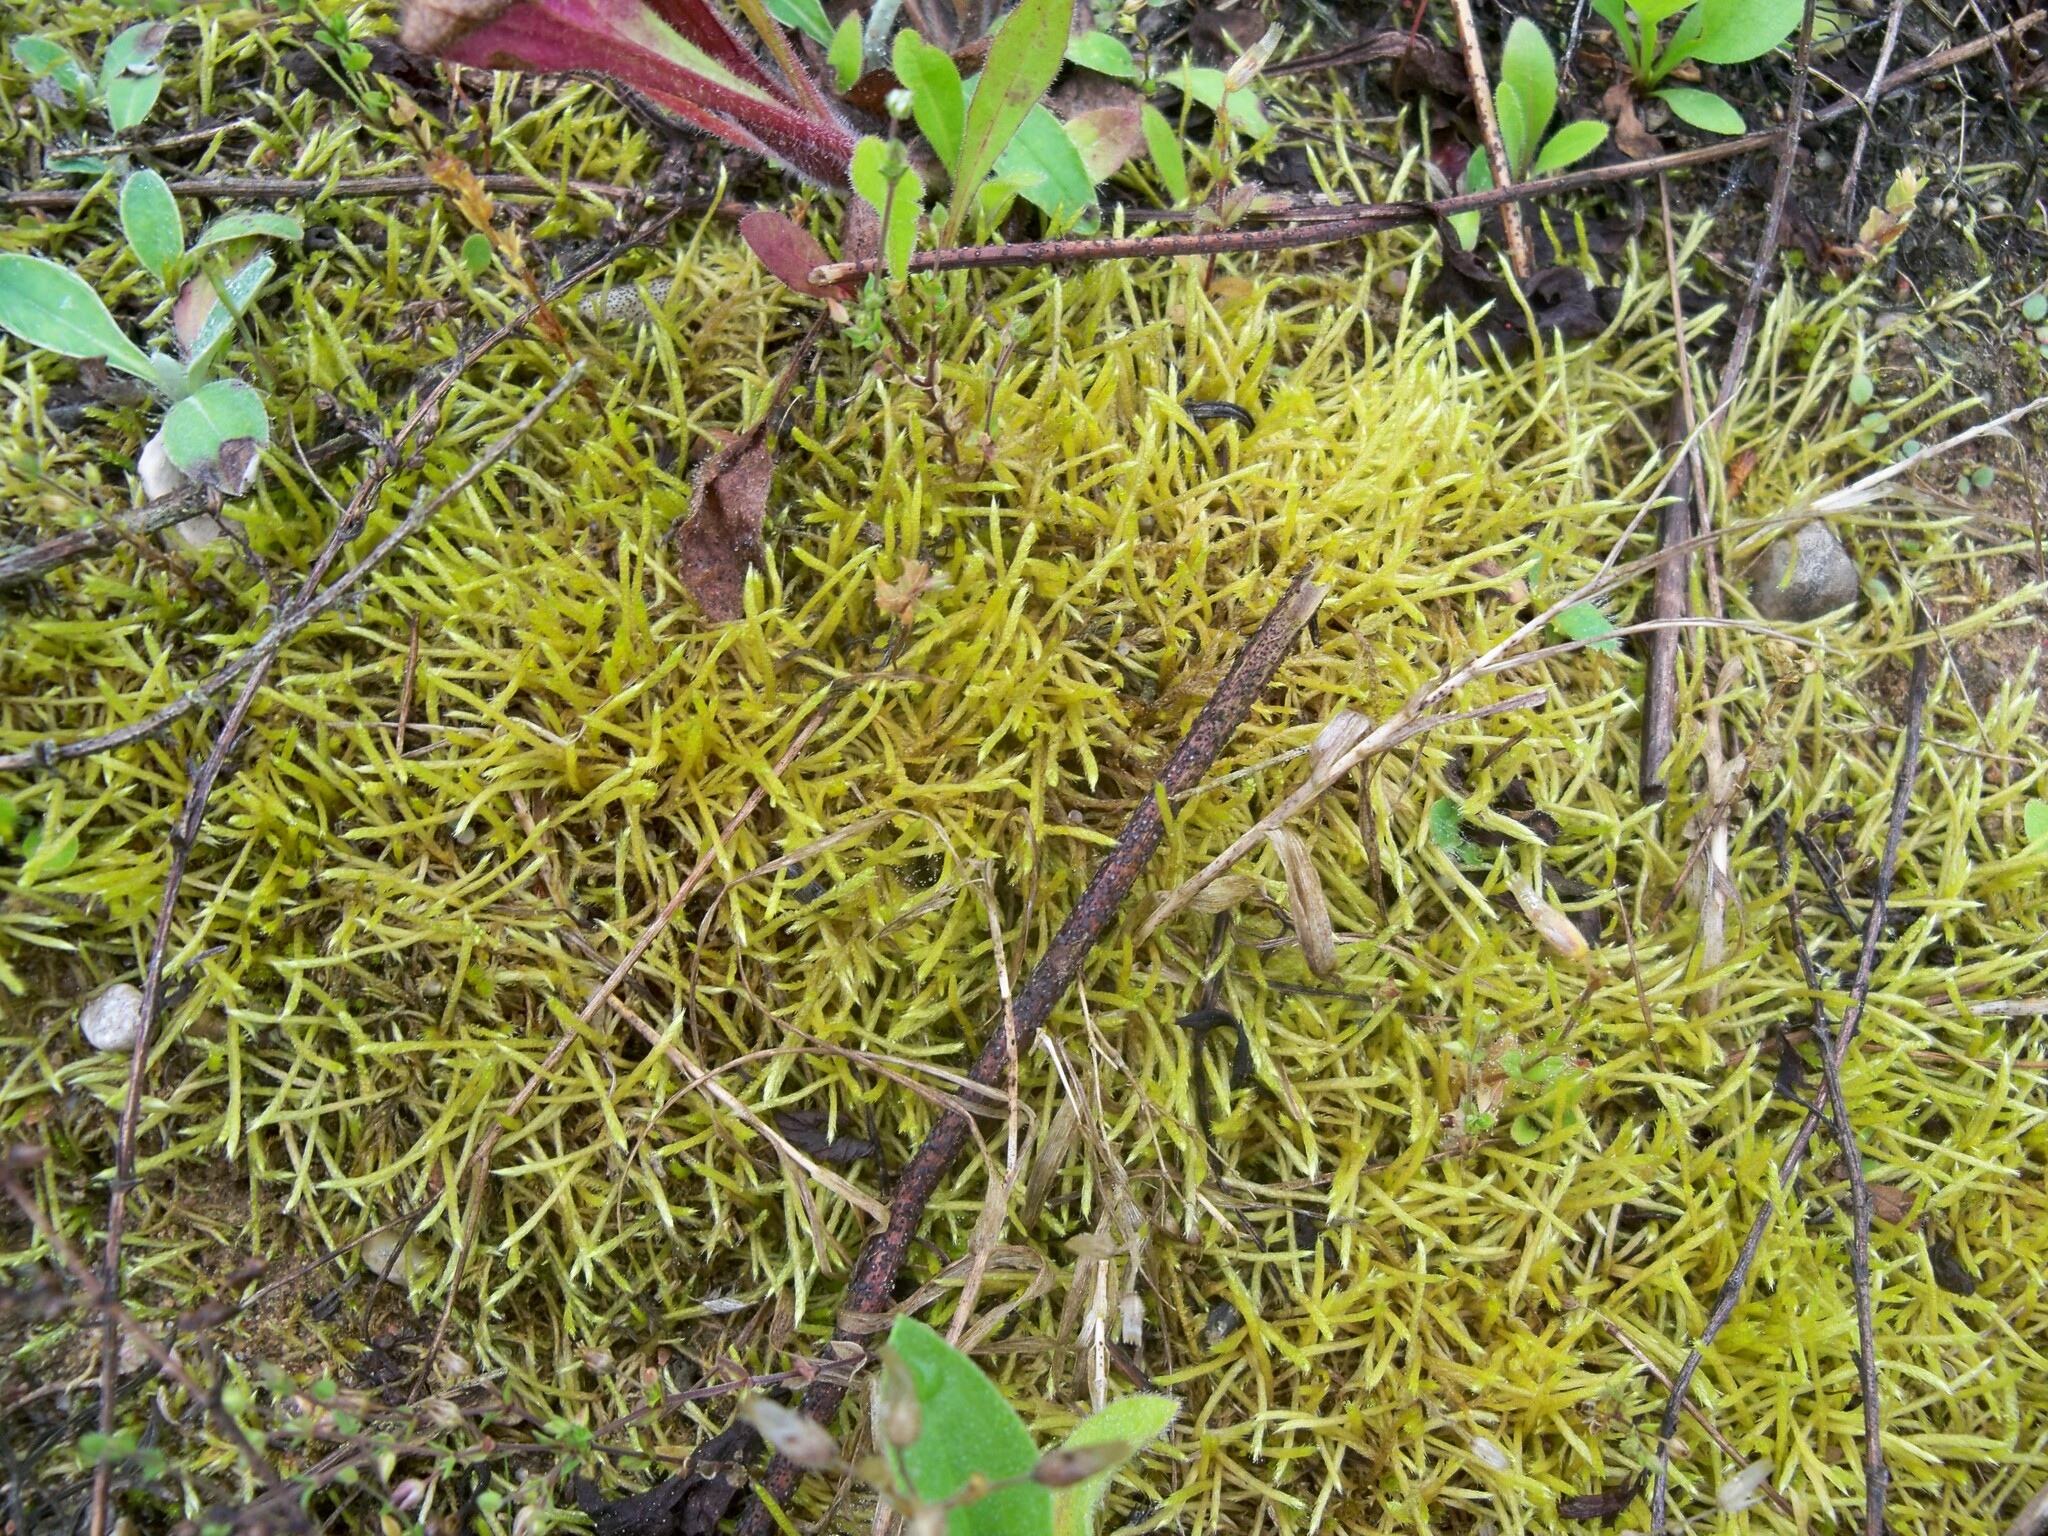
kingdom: Plantae
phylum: Bryophyta
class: Bryopsida
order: Hypnales
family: Brachytheciaceae
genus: Brachythecium
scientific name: Brachythecium albicans
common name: Whitish ragged moss
